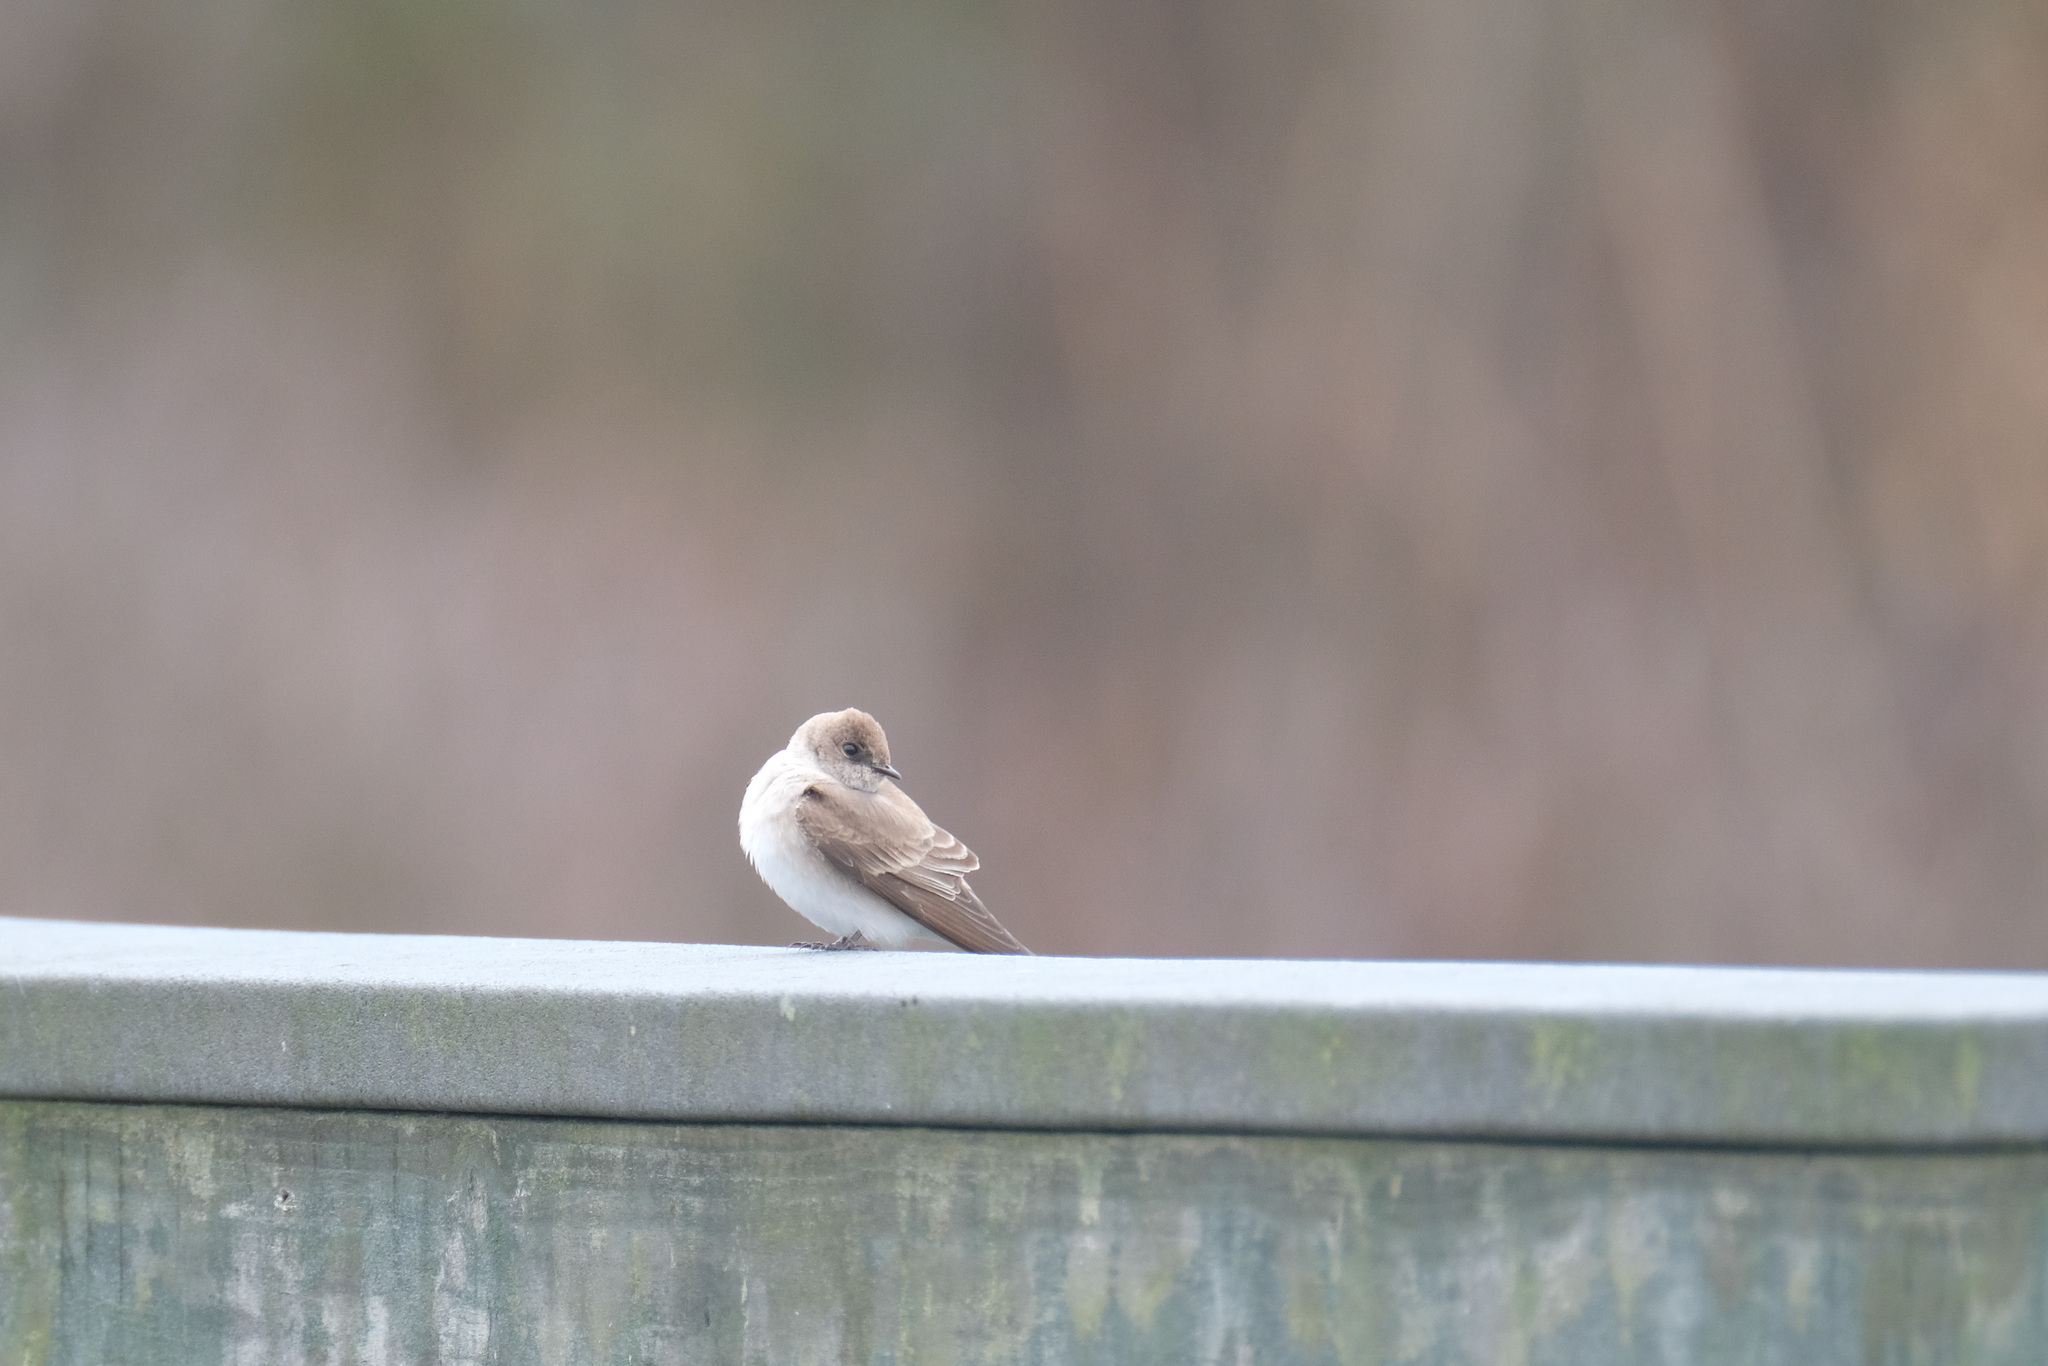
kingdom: Animalia
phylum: Chordata
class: Aves
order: Passeriformes
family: Hirundinidae
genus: Stelgidopteryx
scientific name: Stelgidopteryx serripennis
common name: Northern rough-winged swallow
